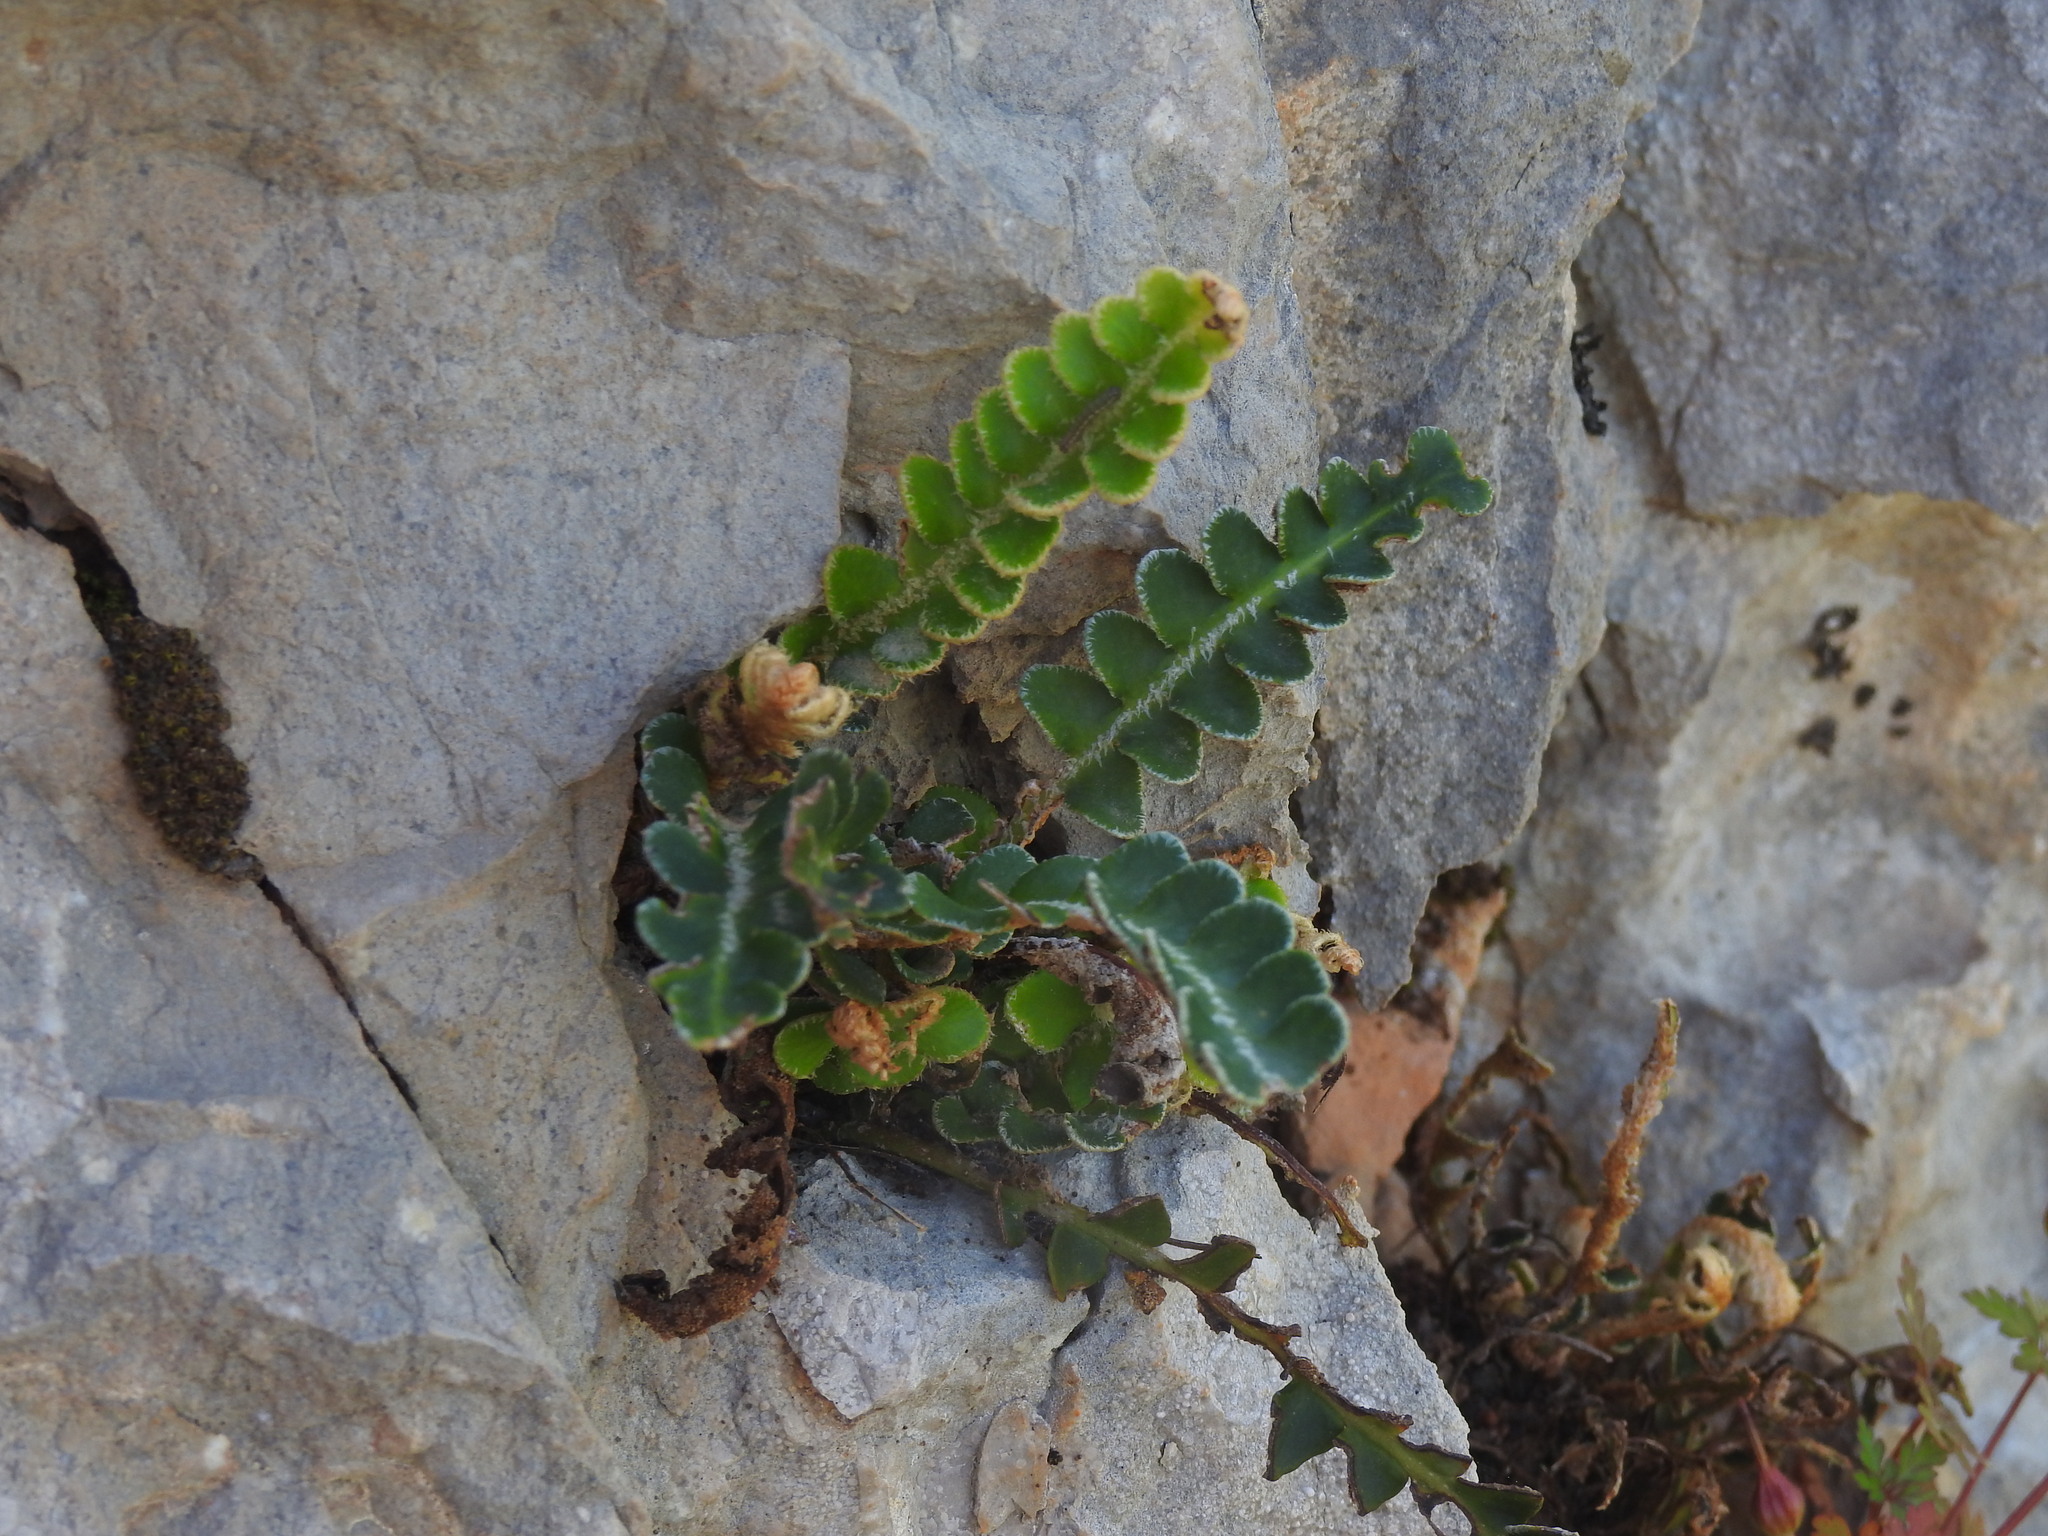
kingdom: Plantae
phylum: Tracheophyta
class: Polypodiopsida
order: Polypodiales
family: Aspleniaceae
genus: Asplenium
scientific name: Asplenium ceterach
